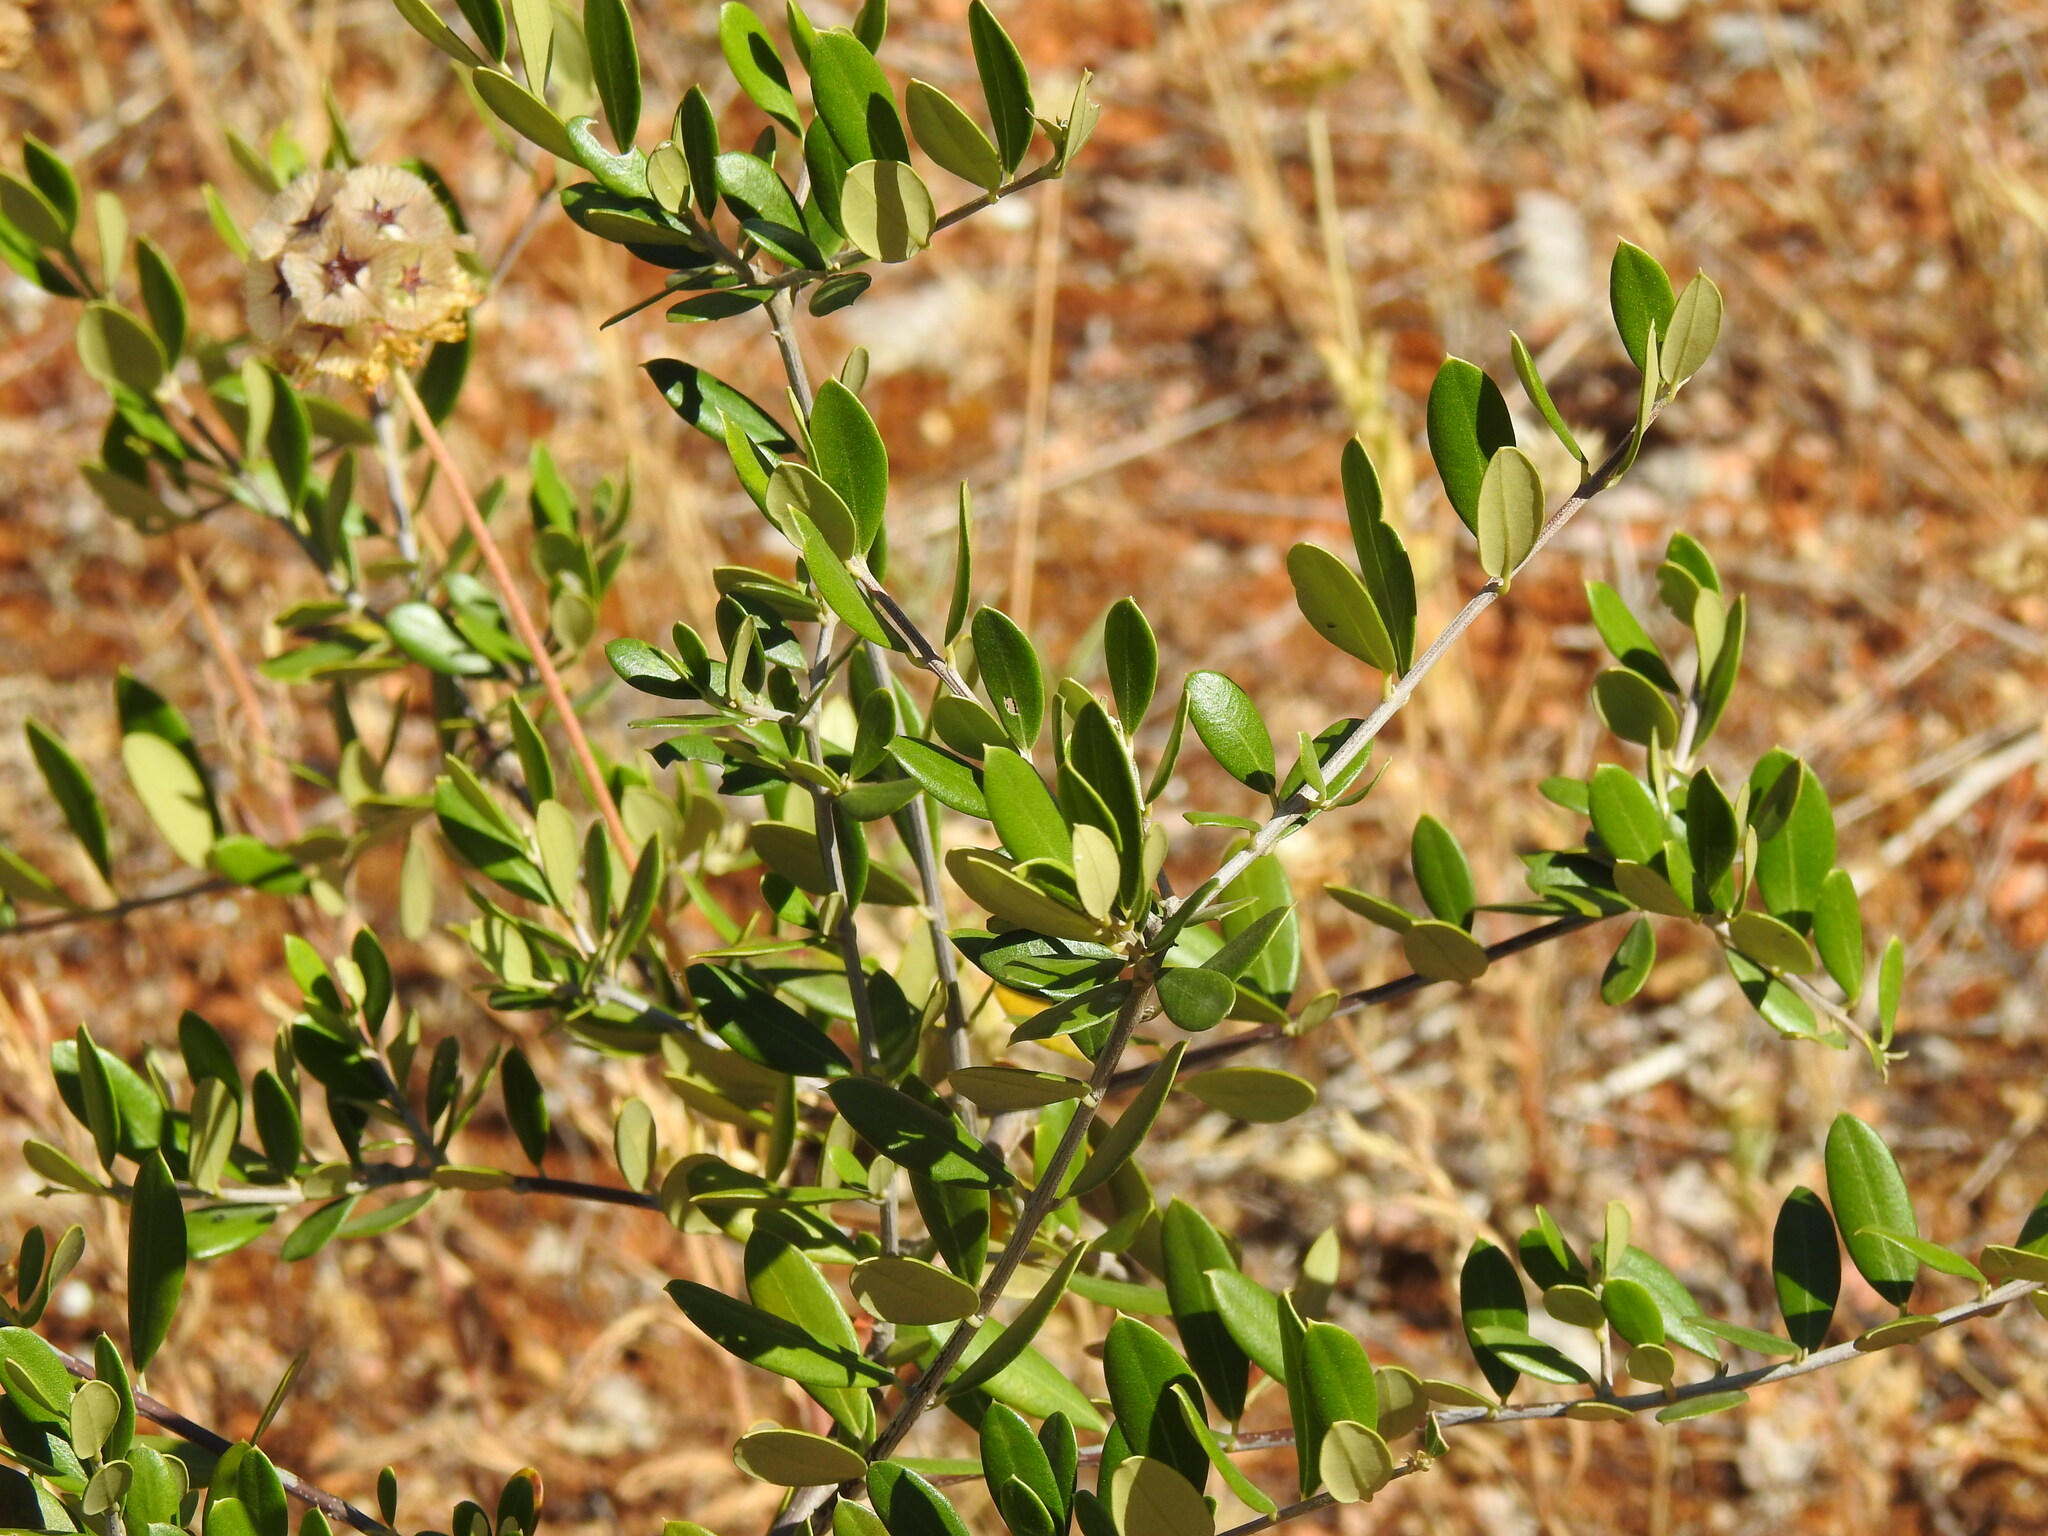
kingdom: Plantae
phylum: Tracheophyta
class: Magnoliopsida
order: Lamiales
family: Oleaceae
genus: Olea
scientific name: Olea europaea
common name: Olive
